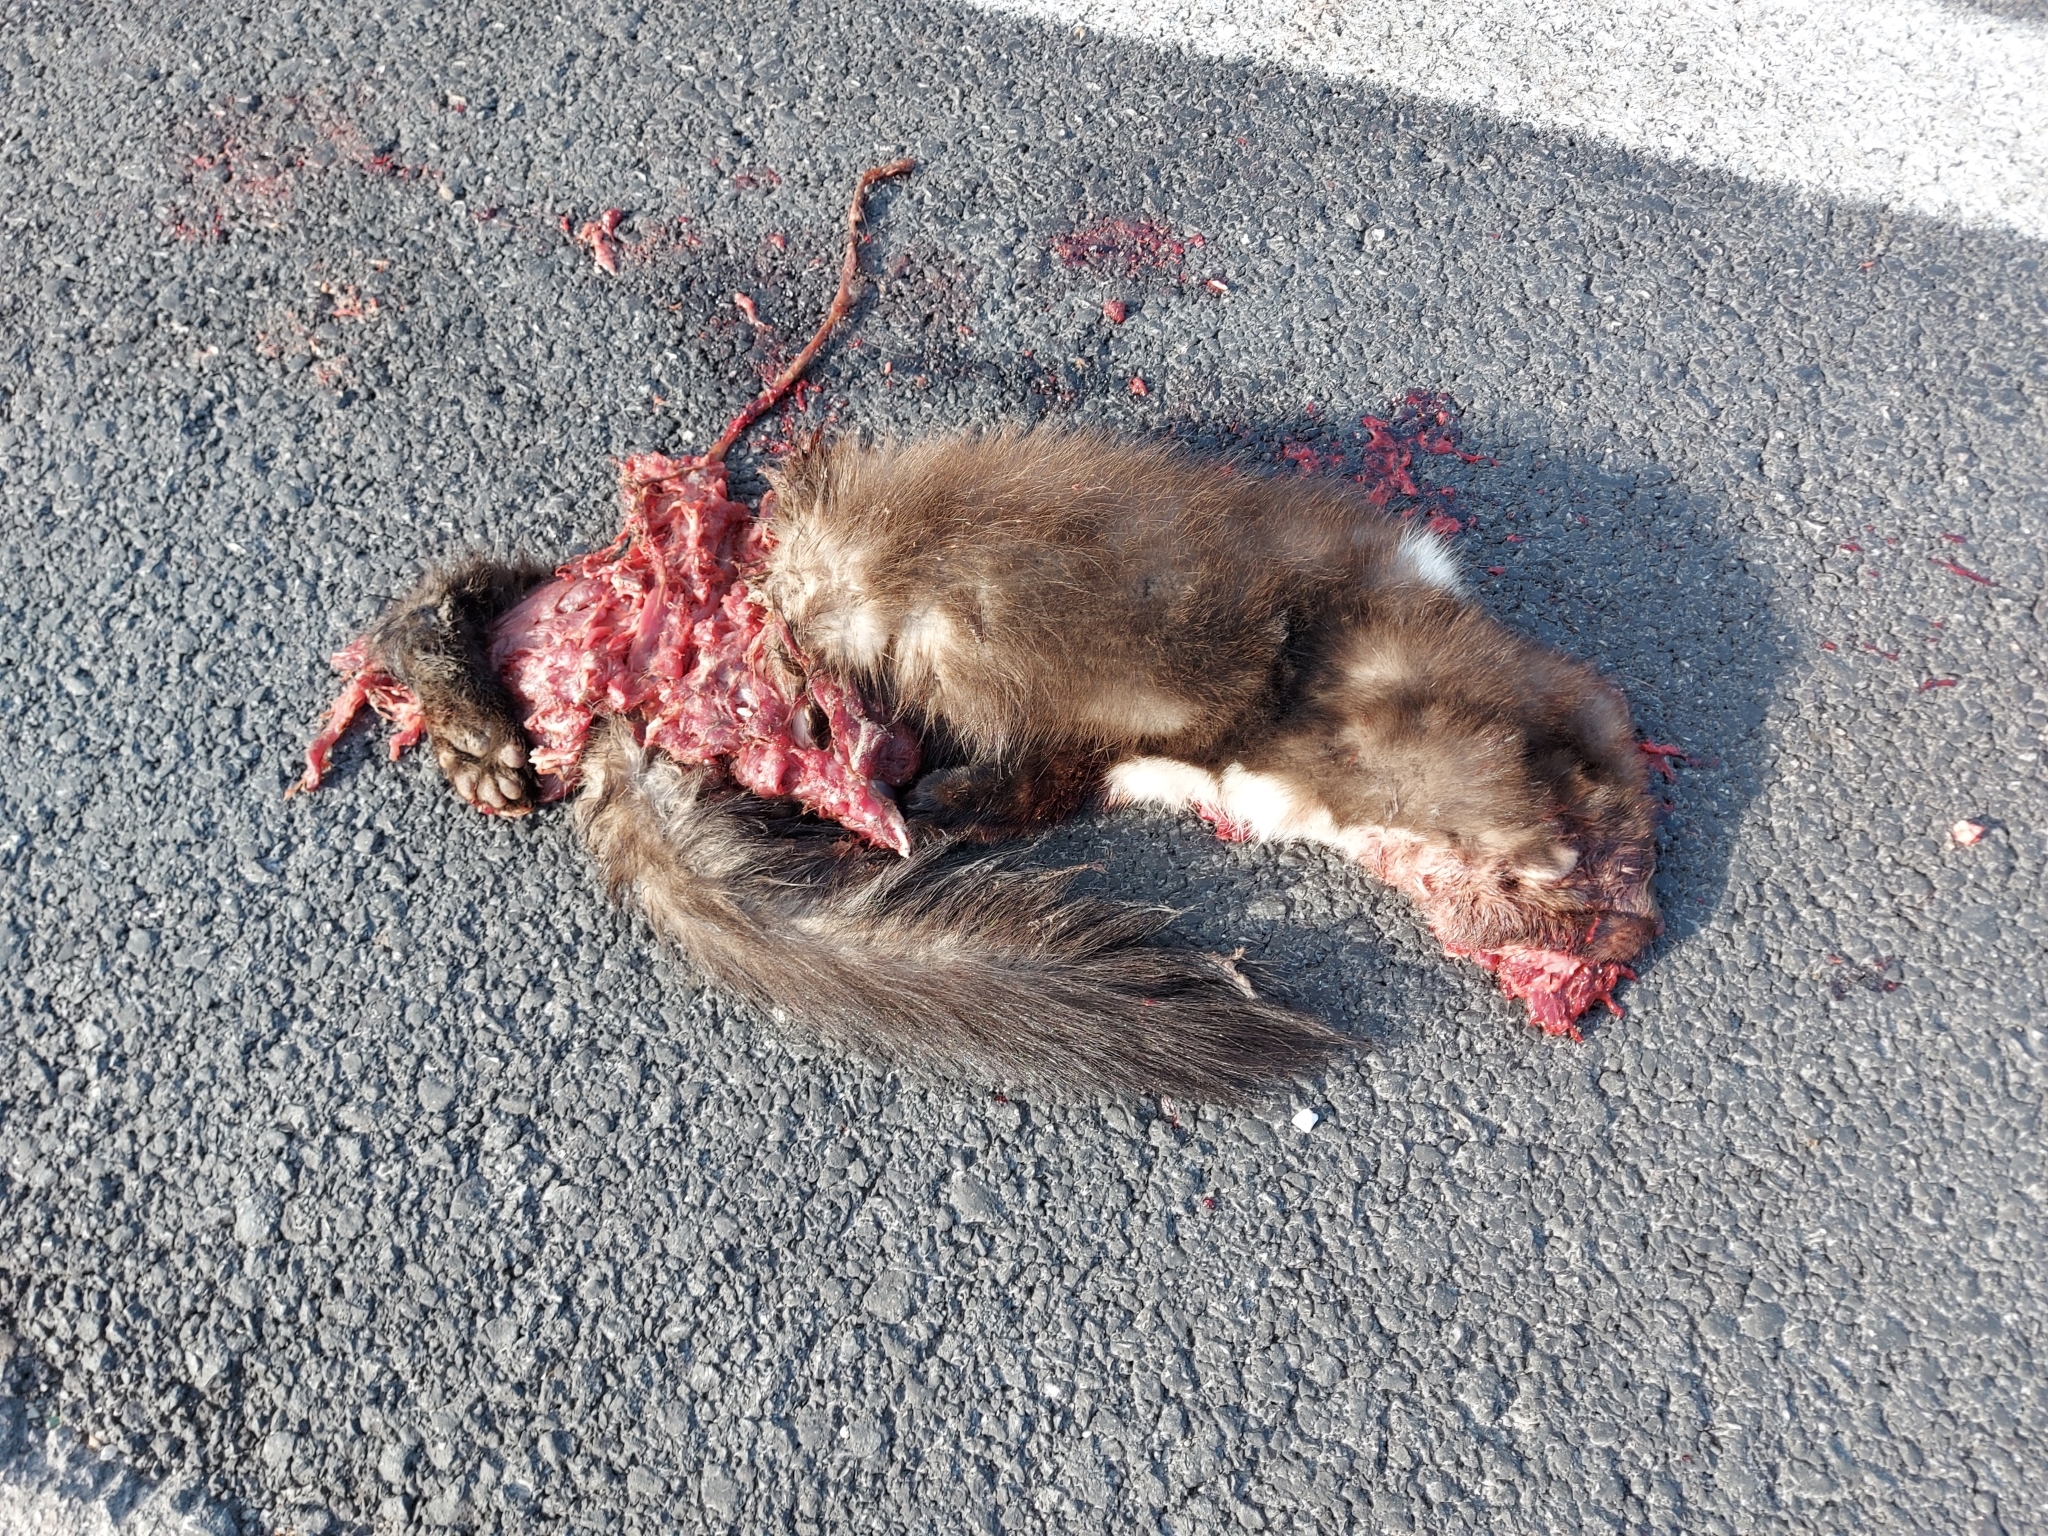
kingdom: Animalia
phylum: Chordata
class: Mammalia
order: Carnivora
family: Mustelidae
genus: Martes
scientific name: Martes foina
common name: Beech marten
